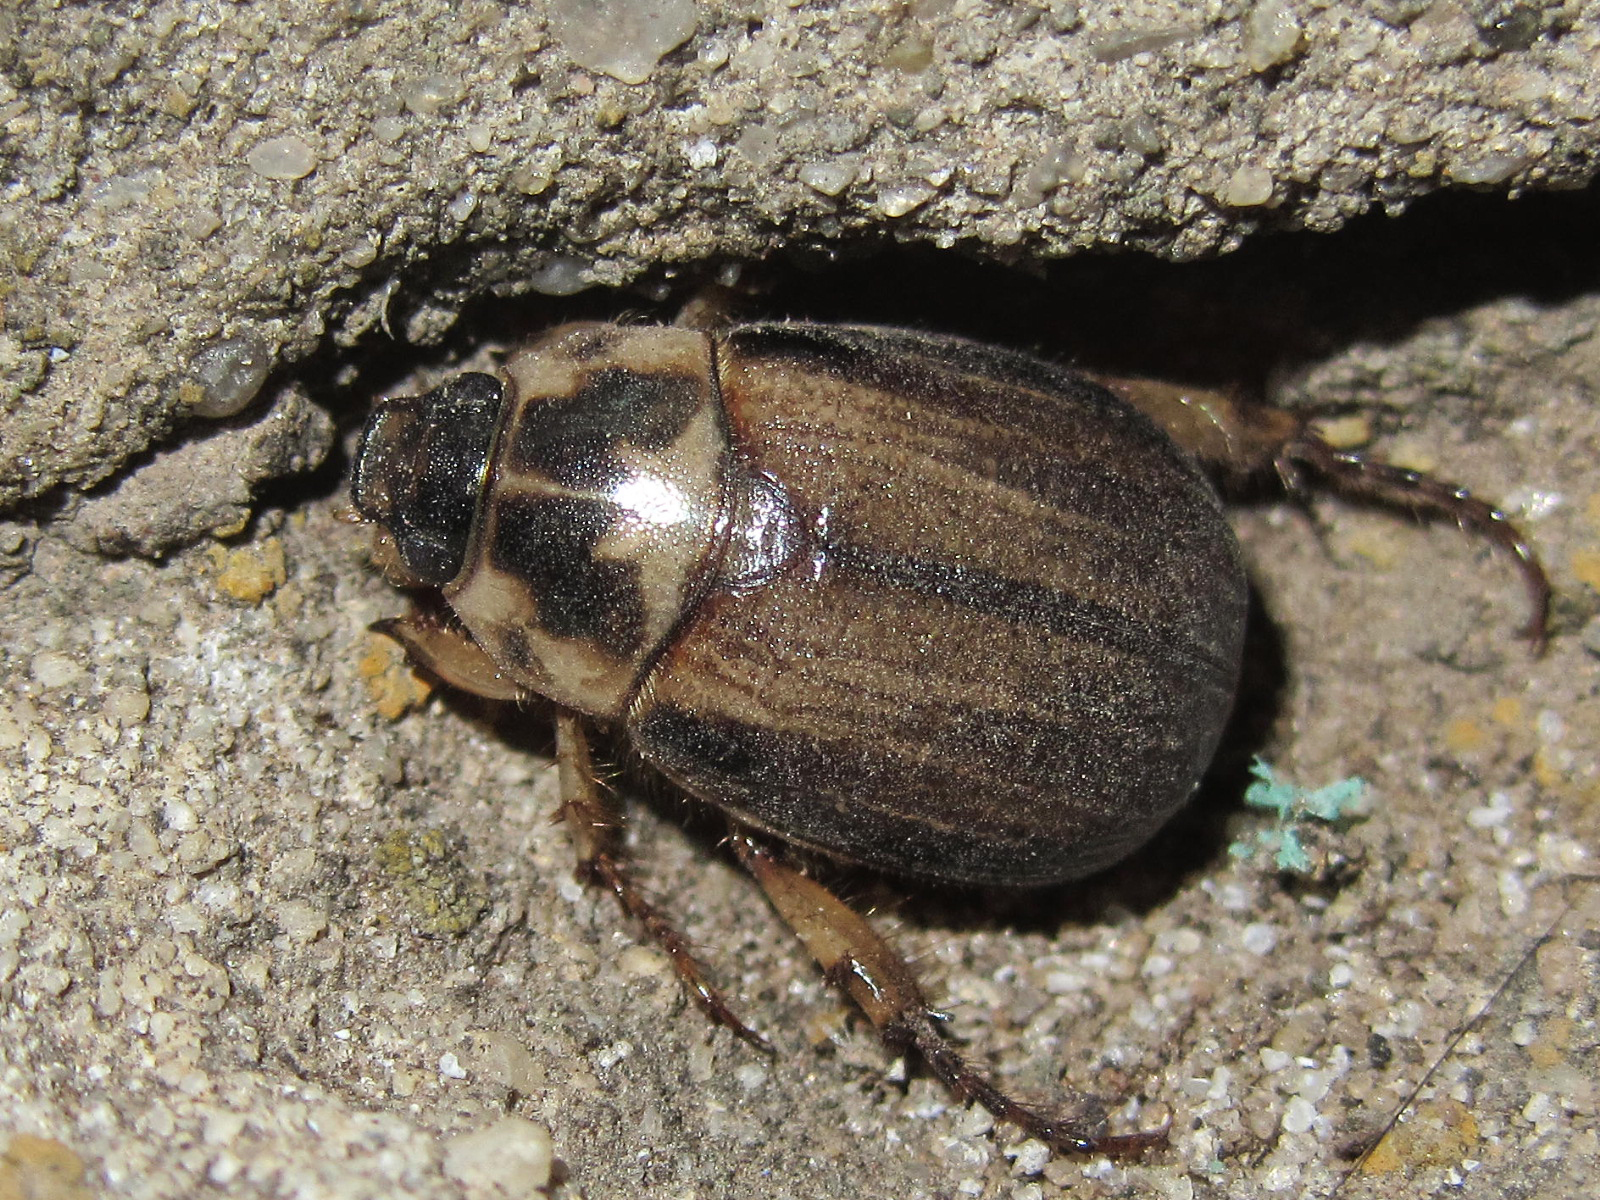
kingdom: Animalia
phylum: Arthropoda
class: Insecta
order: Coleoptera
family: Scarabaeidae
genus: Anomala
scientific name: Anomala errans
